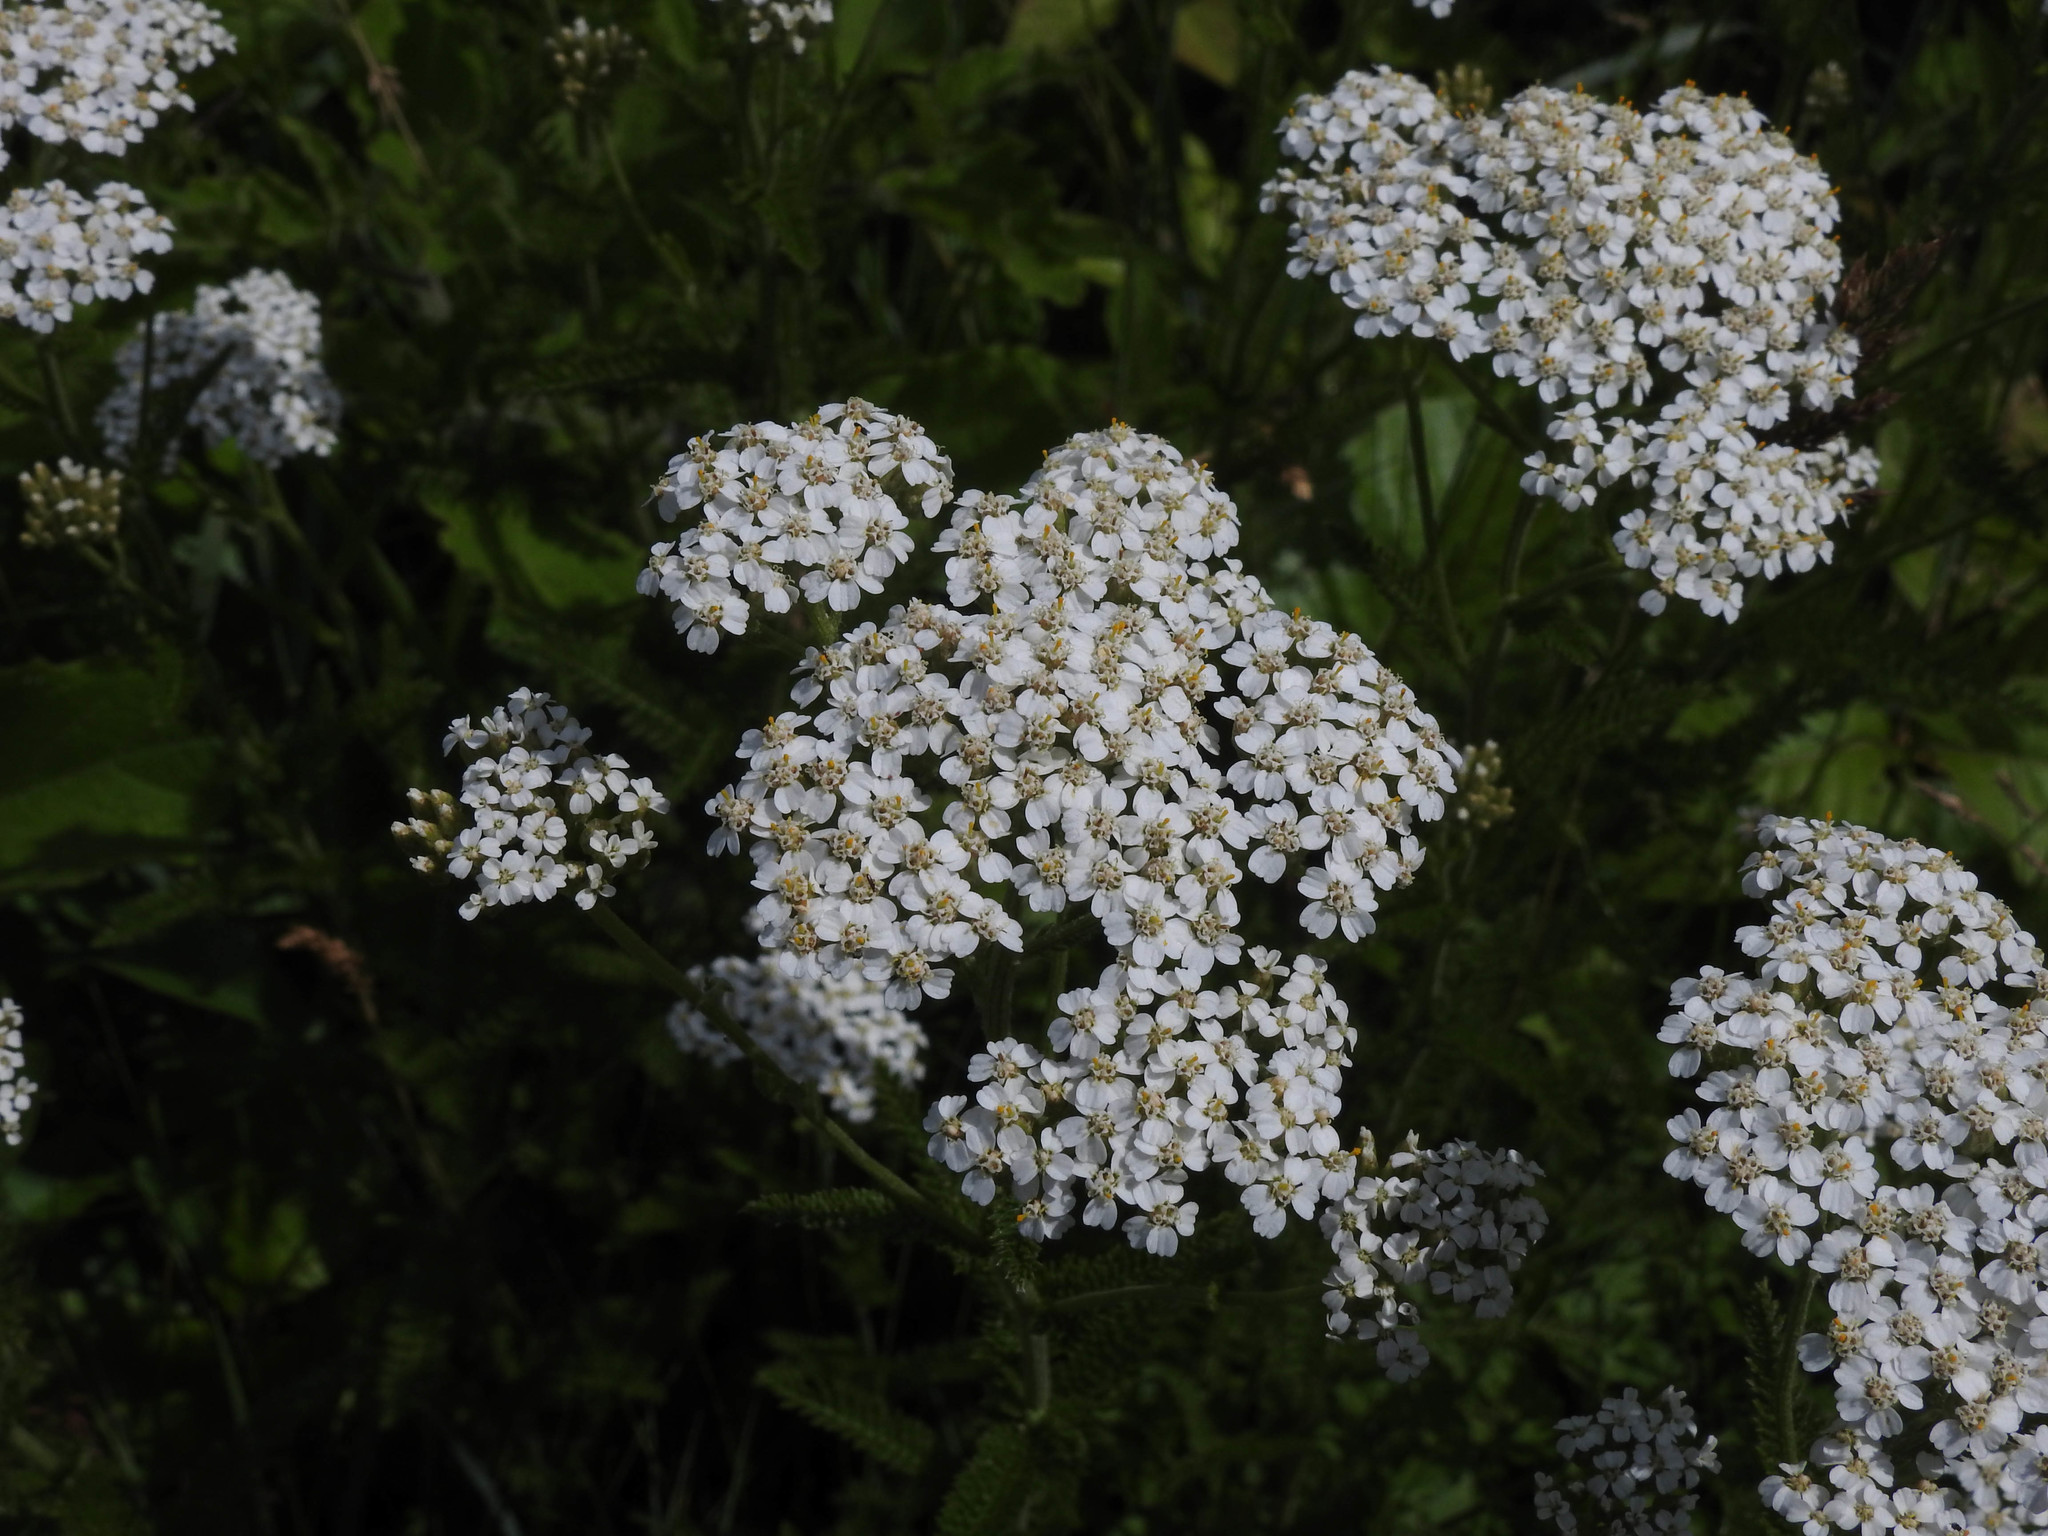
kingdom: Plantae
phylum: Tracheophyta
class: Magnoliopsida
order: Asterales
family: Asteraceae
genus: Achillea
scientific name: Achillea millefolium
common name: Yarrow
